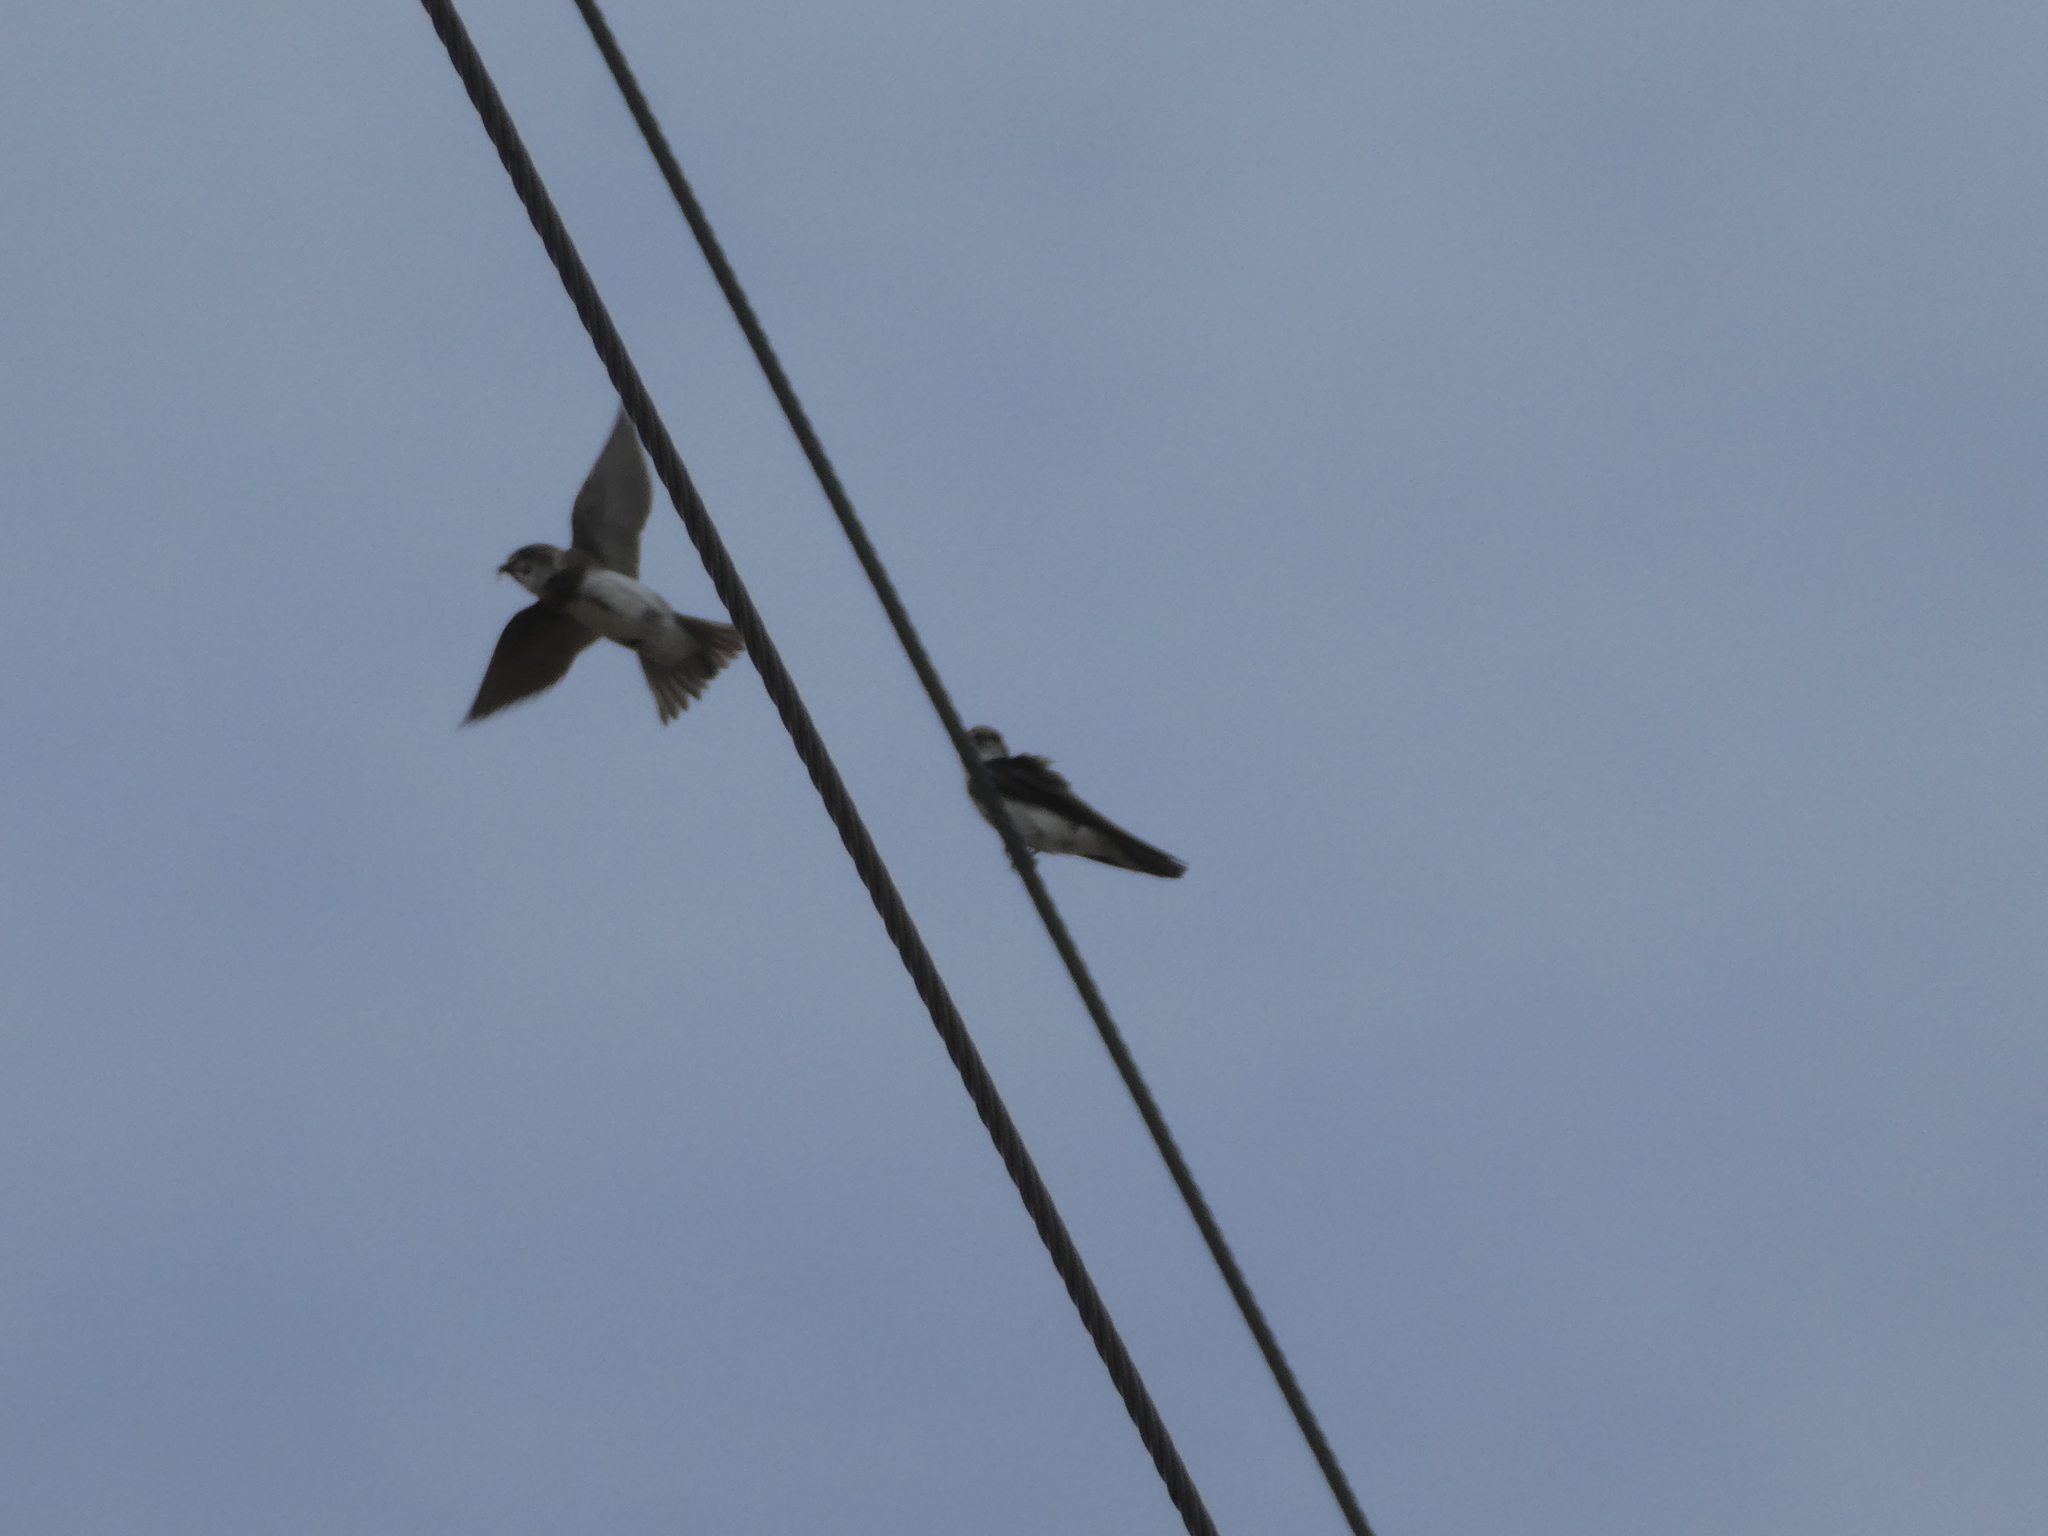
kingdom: Animalia
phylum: Chordata
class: Aves
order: Passeriformes
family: Hirundinidae
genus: Riparia
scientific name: Riparia riparia
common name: Sand martin
